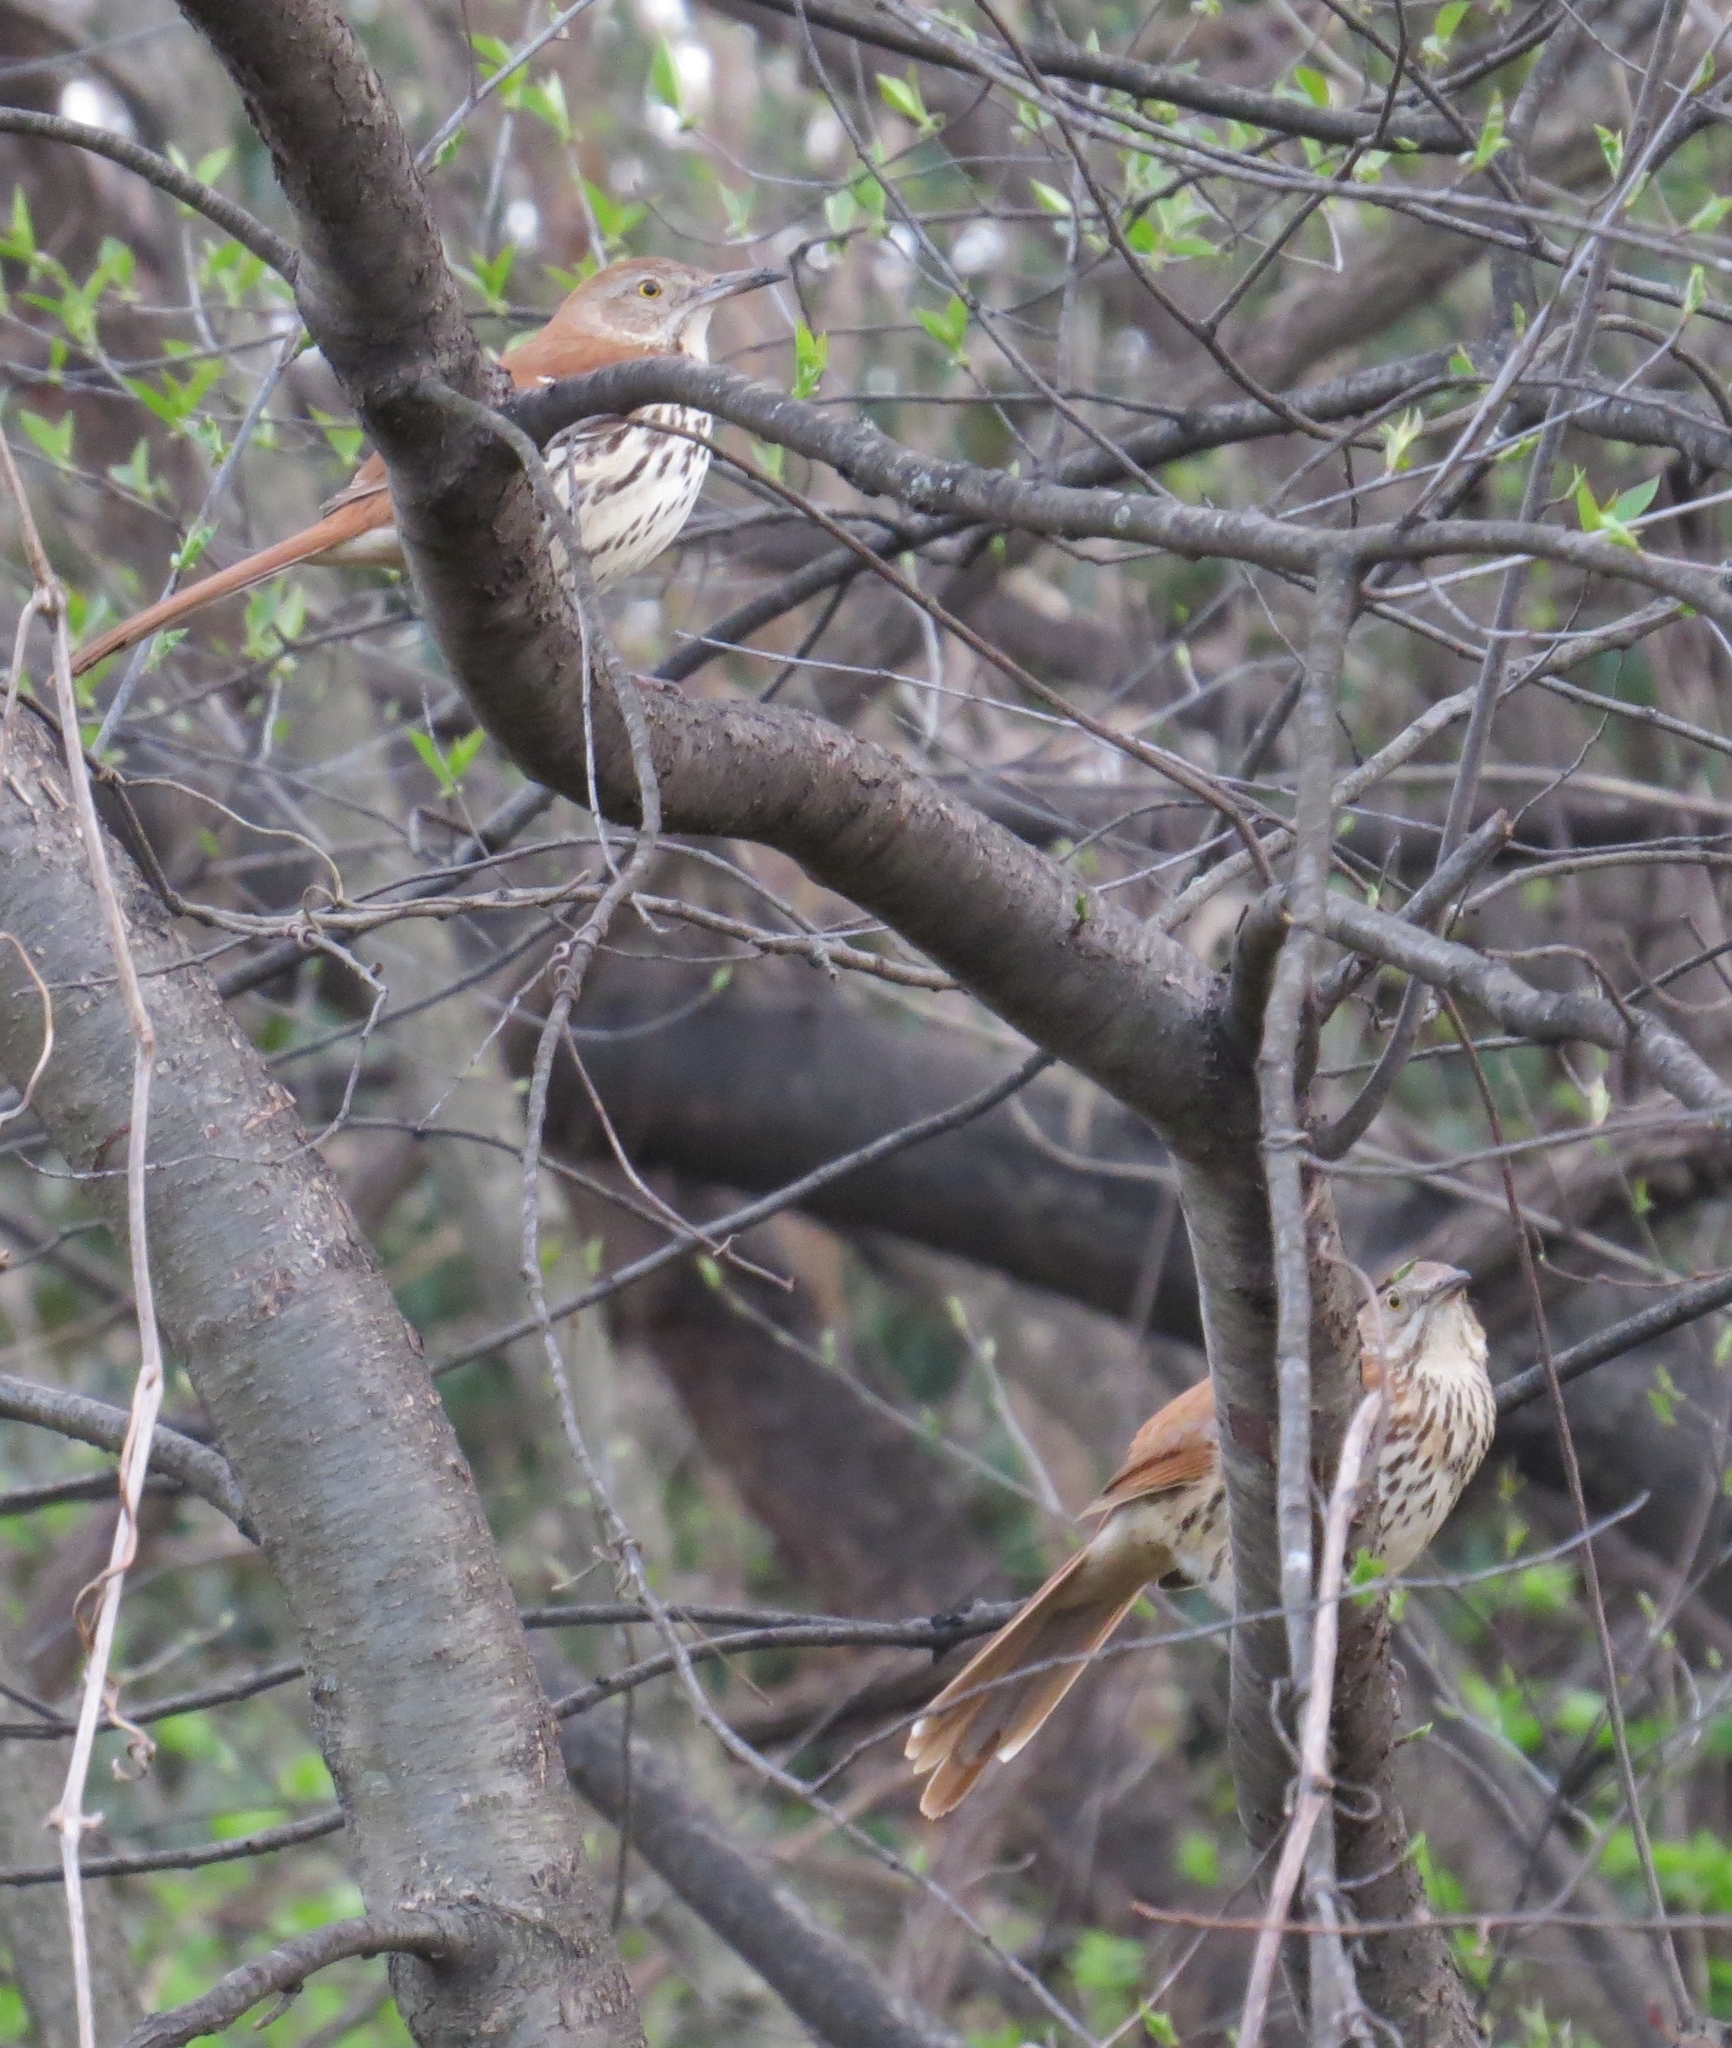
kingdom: Animalia
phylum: Chordata
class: Aves
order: Passeriformes
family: Mimidae
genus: Toxostoma
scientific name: Toxostoma rufum
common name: Brown thrasher
